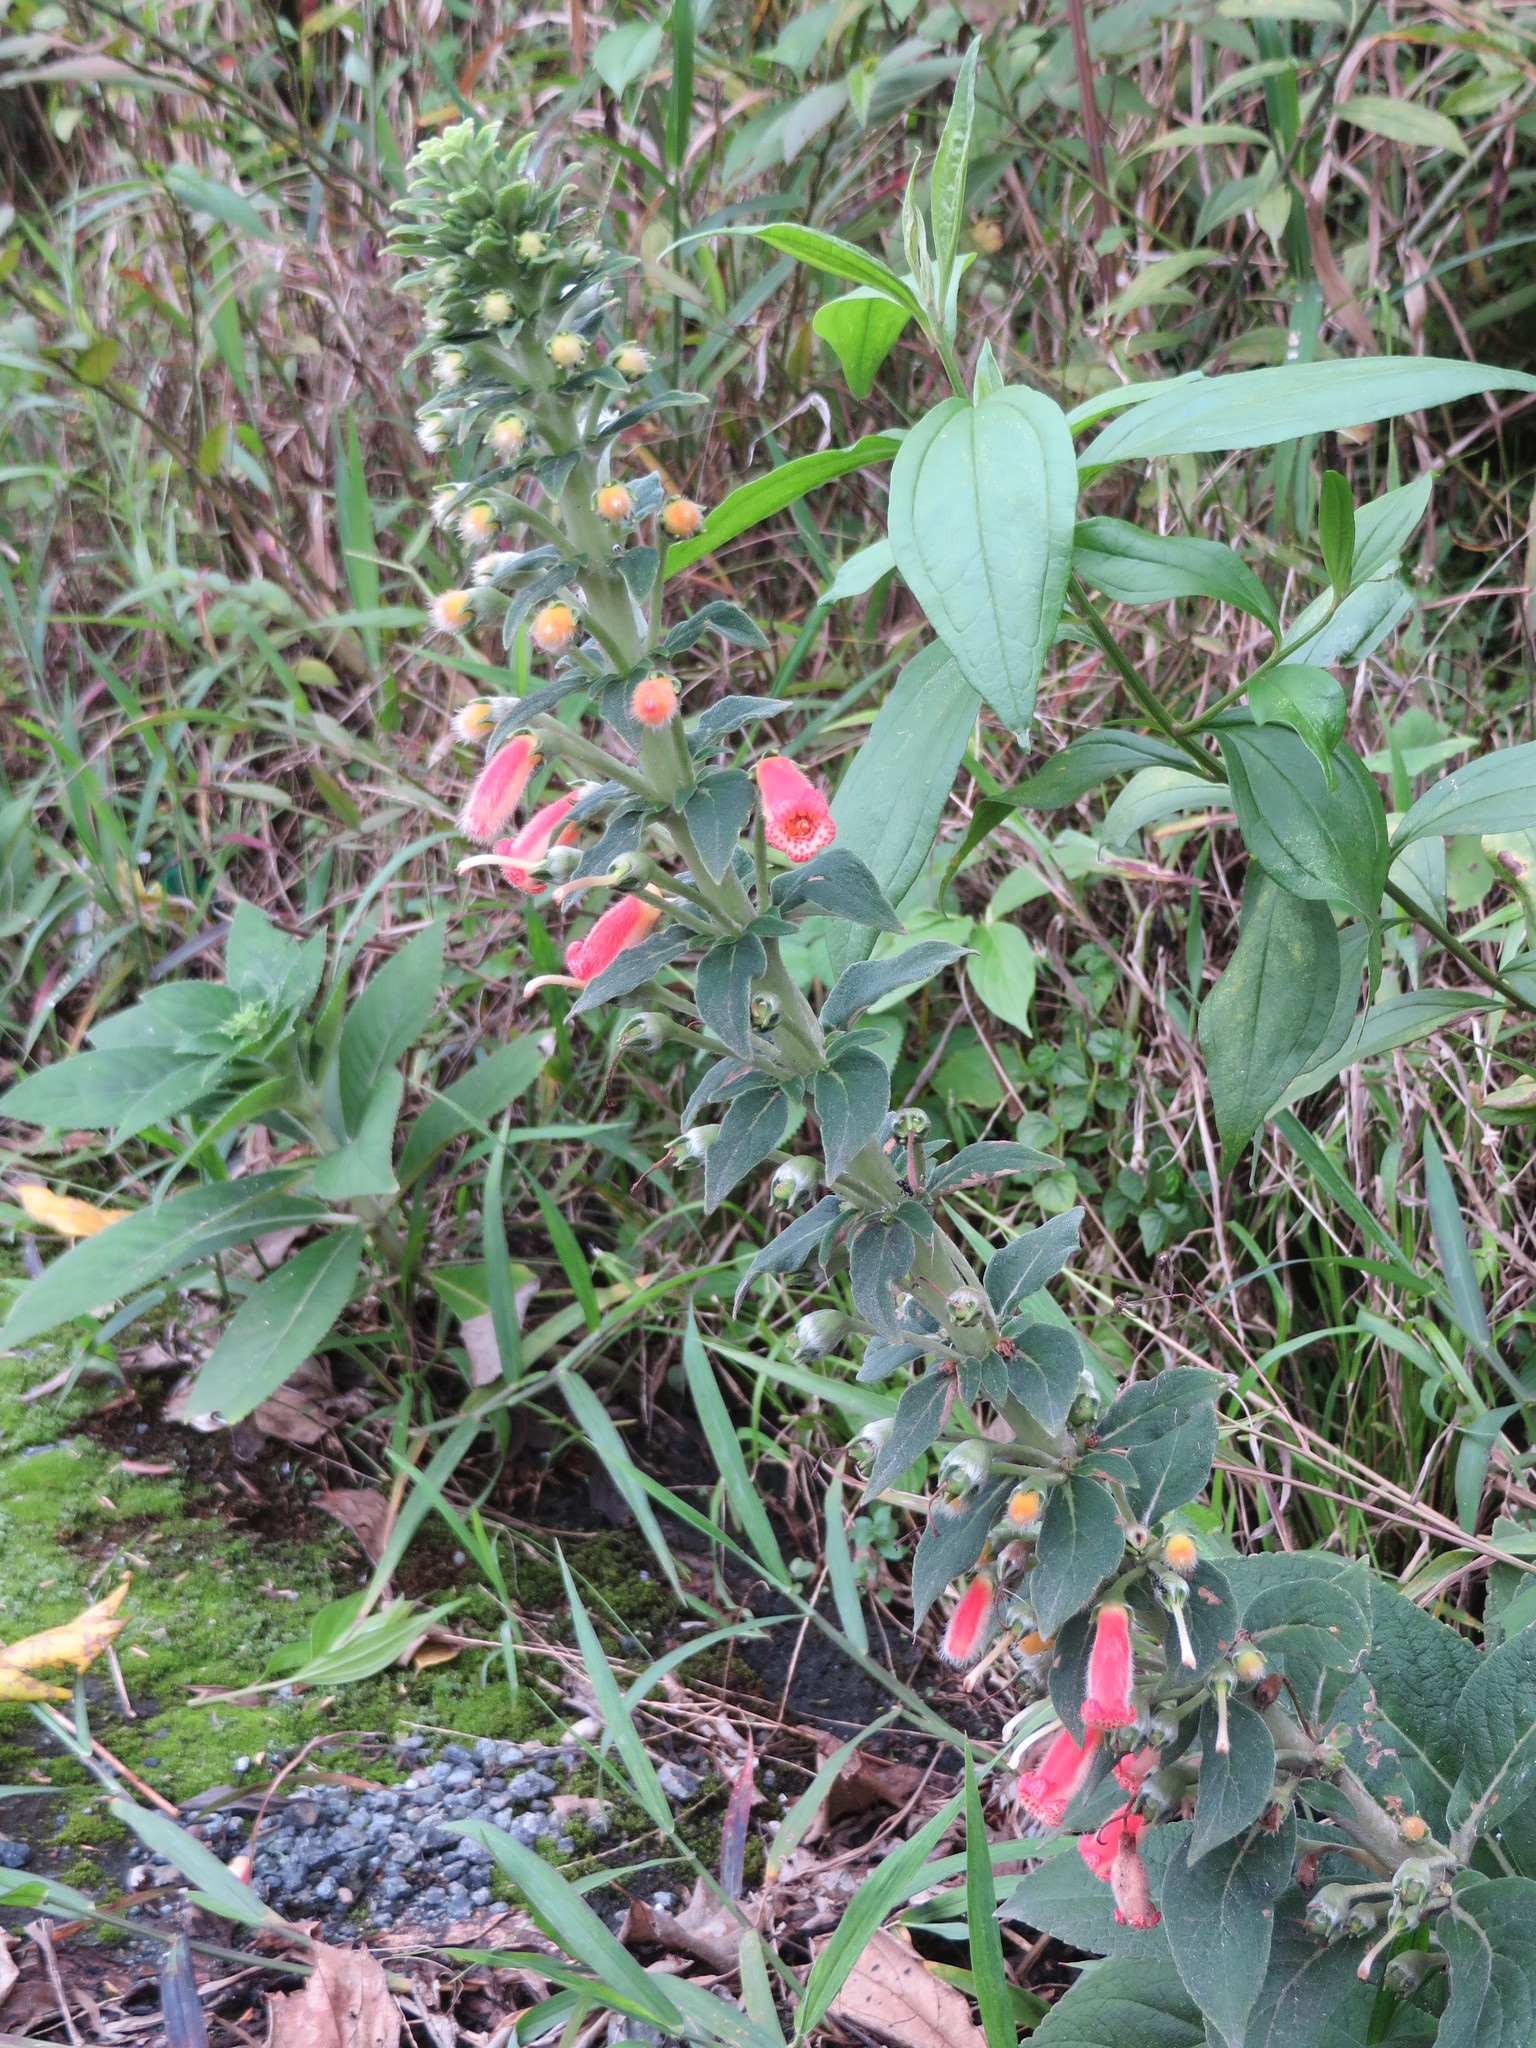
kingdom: Plantae
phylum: Tracheophyta
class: Magnoliopsida
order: Lamiales
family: Gesneriaceae
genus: Kohleria
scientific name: Kohleria spicata
